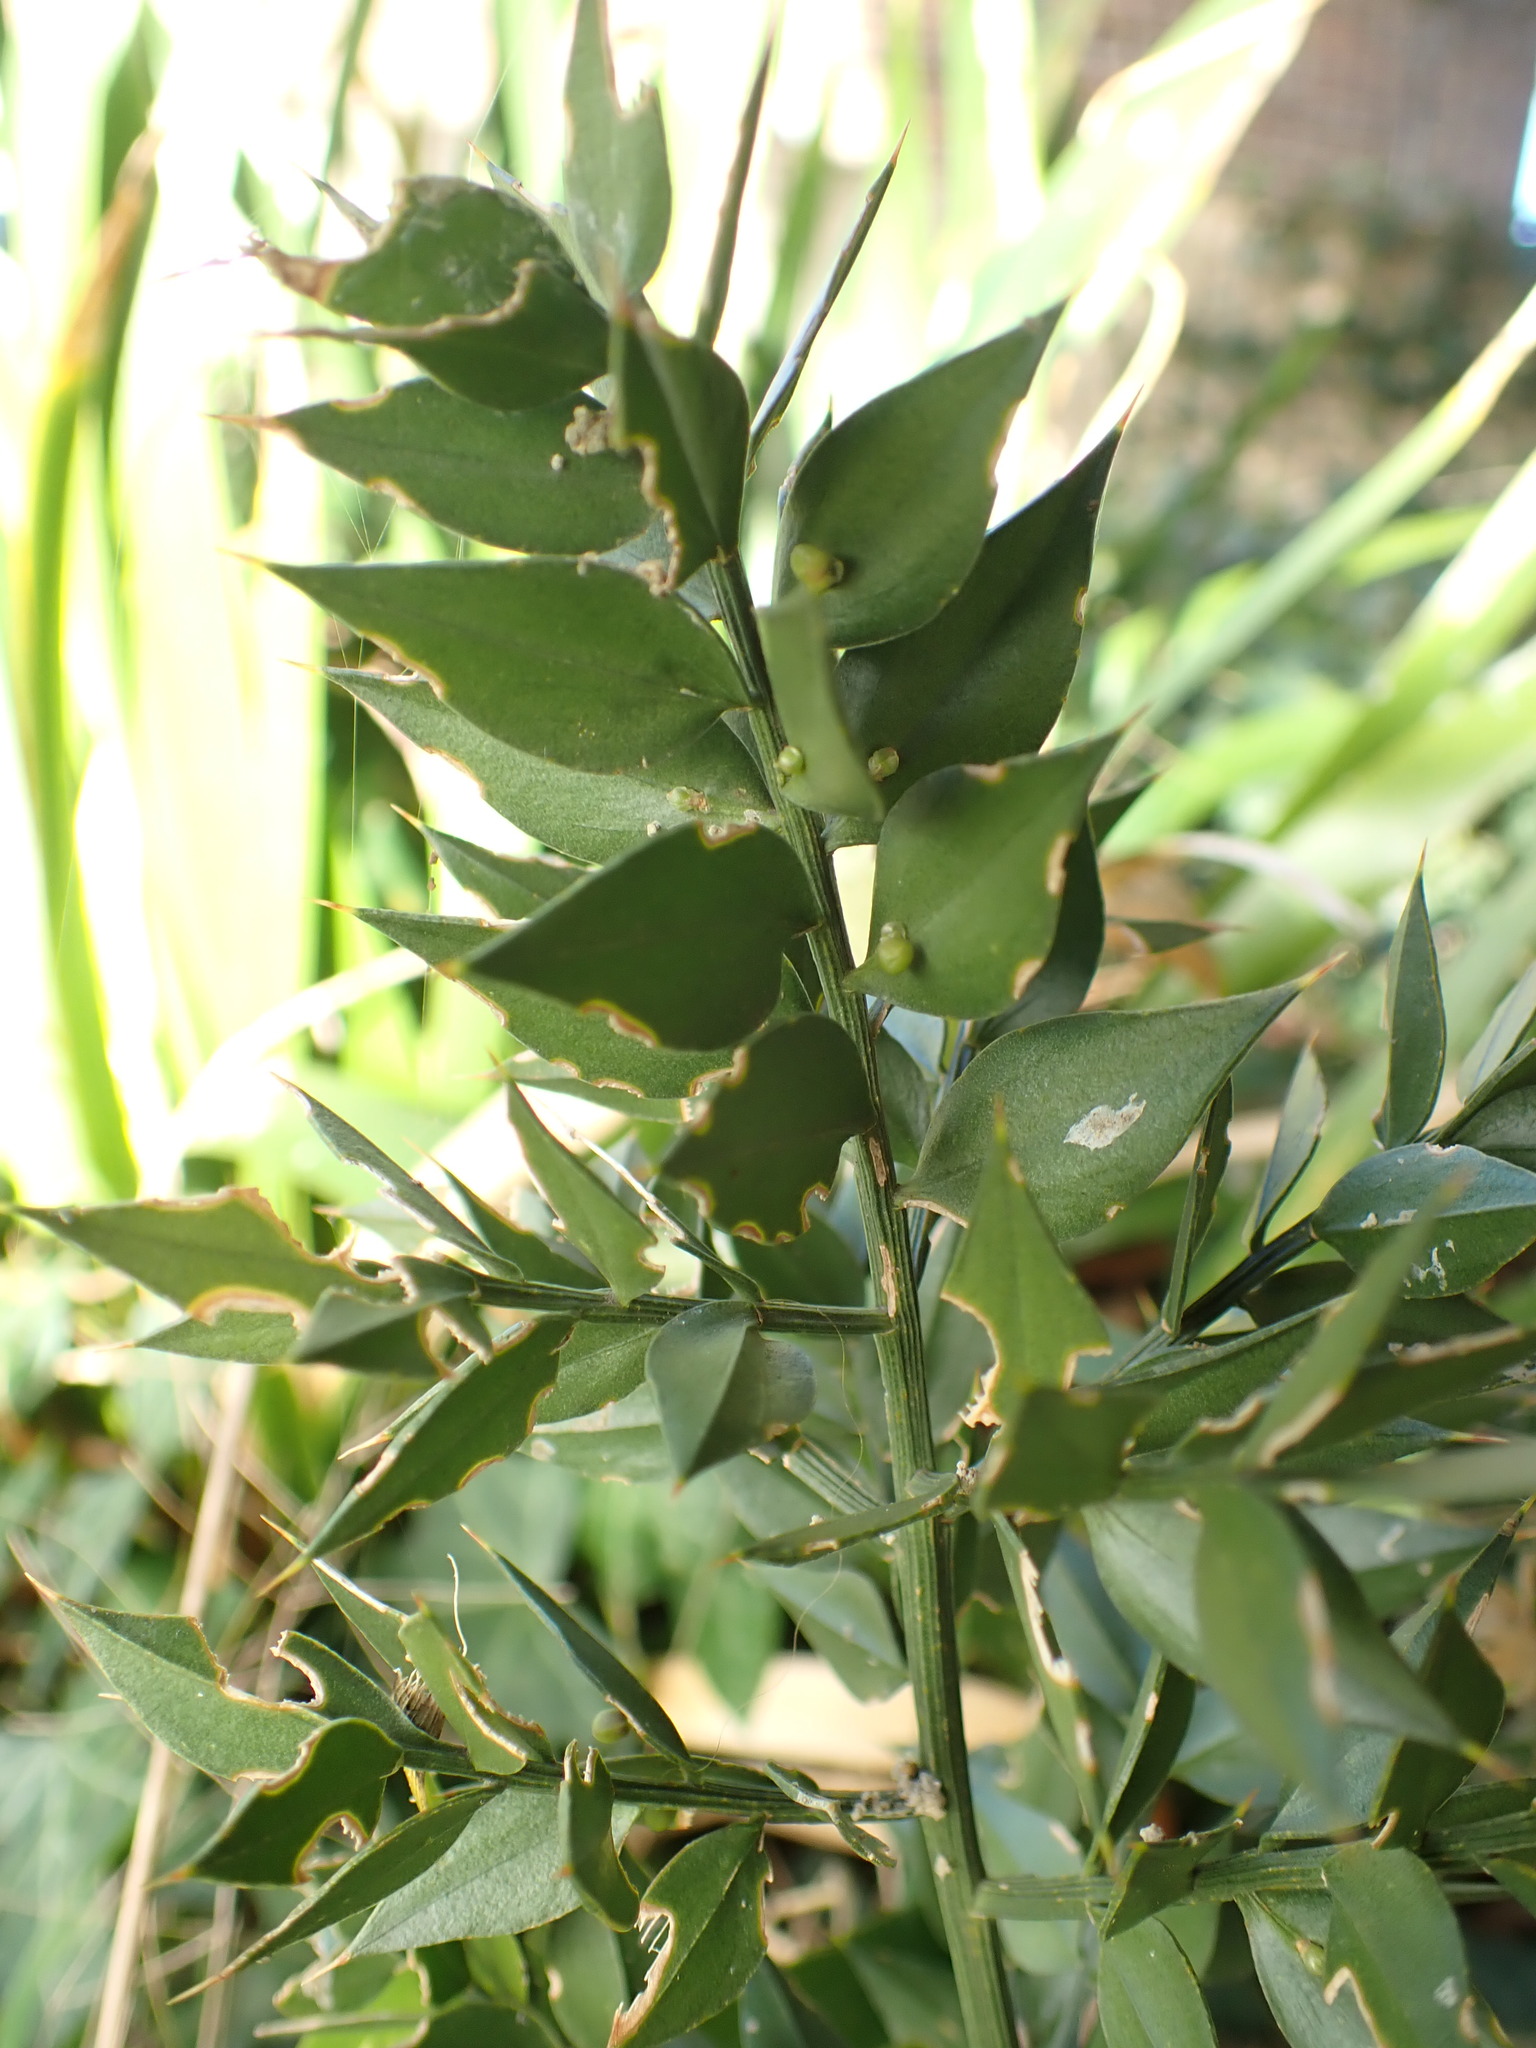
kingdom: Plantae
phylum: Tracheophyta
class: Liliopsida
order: Asparagales
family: Asparagaceae
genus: Ruscus
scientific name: Ruscus aculeatus
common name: Butcher's-broom
